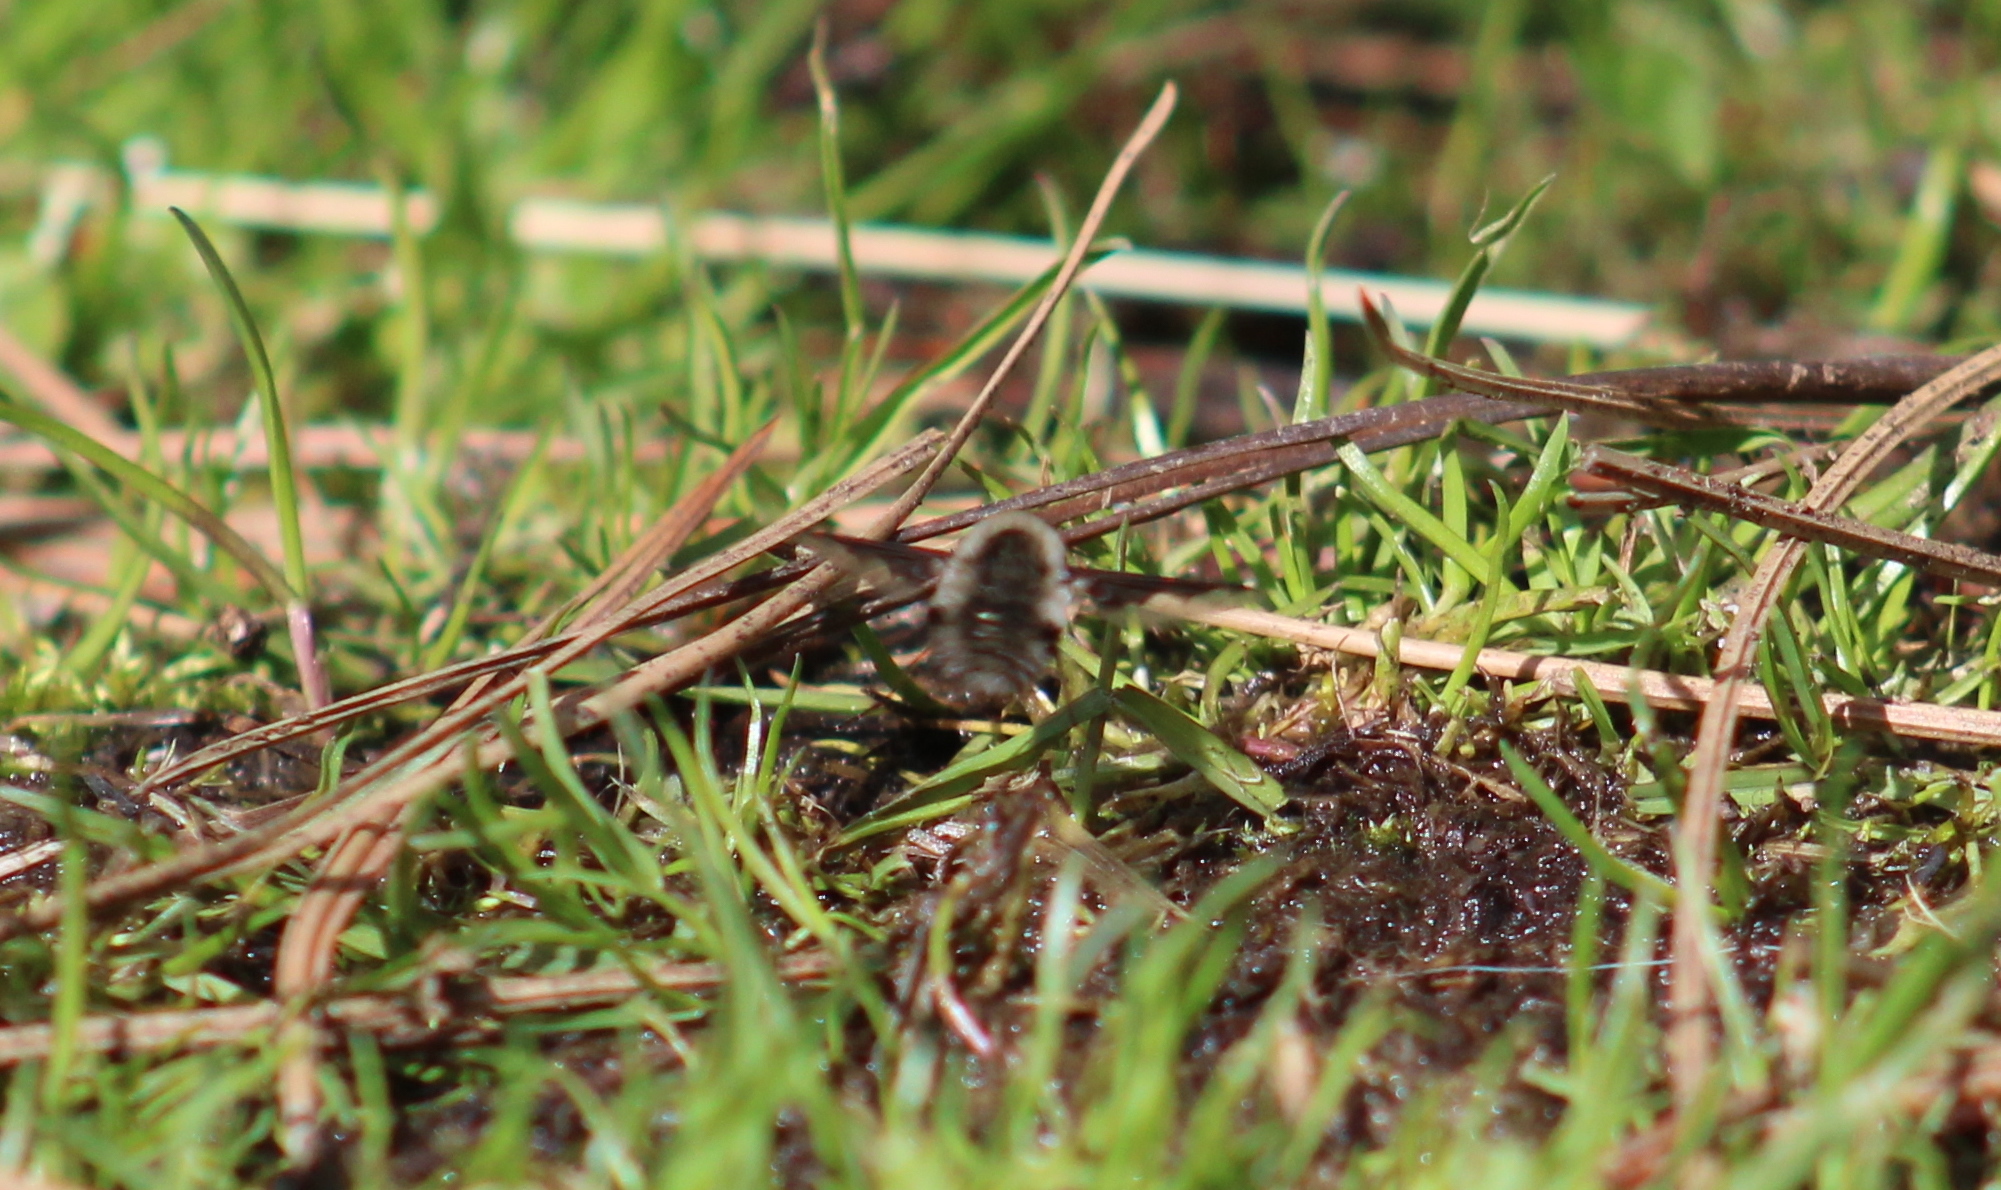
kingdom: Animalia
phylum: Arthropoda
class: Insecta
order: Diptera
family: Bombyliidae
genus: Bombylius
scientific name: Bombylius major
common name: Bee fly
